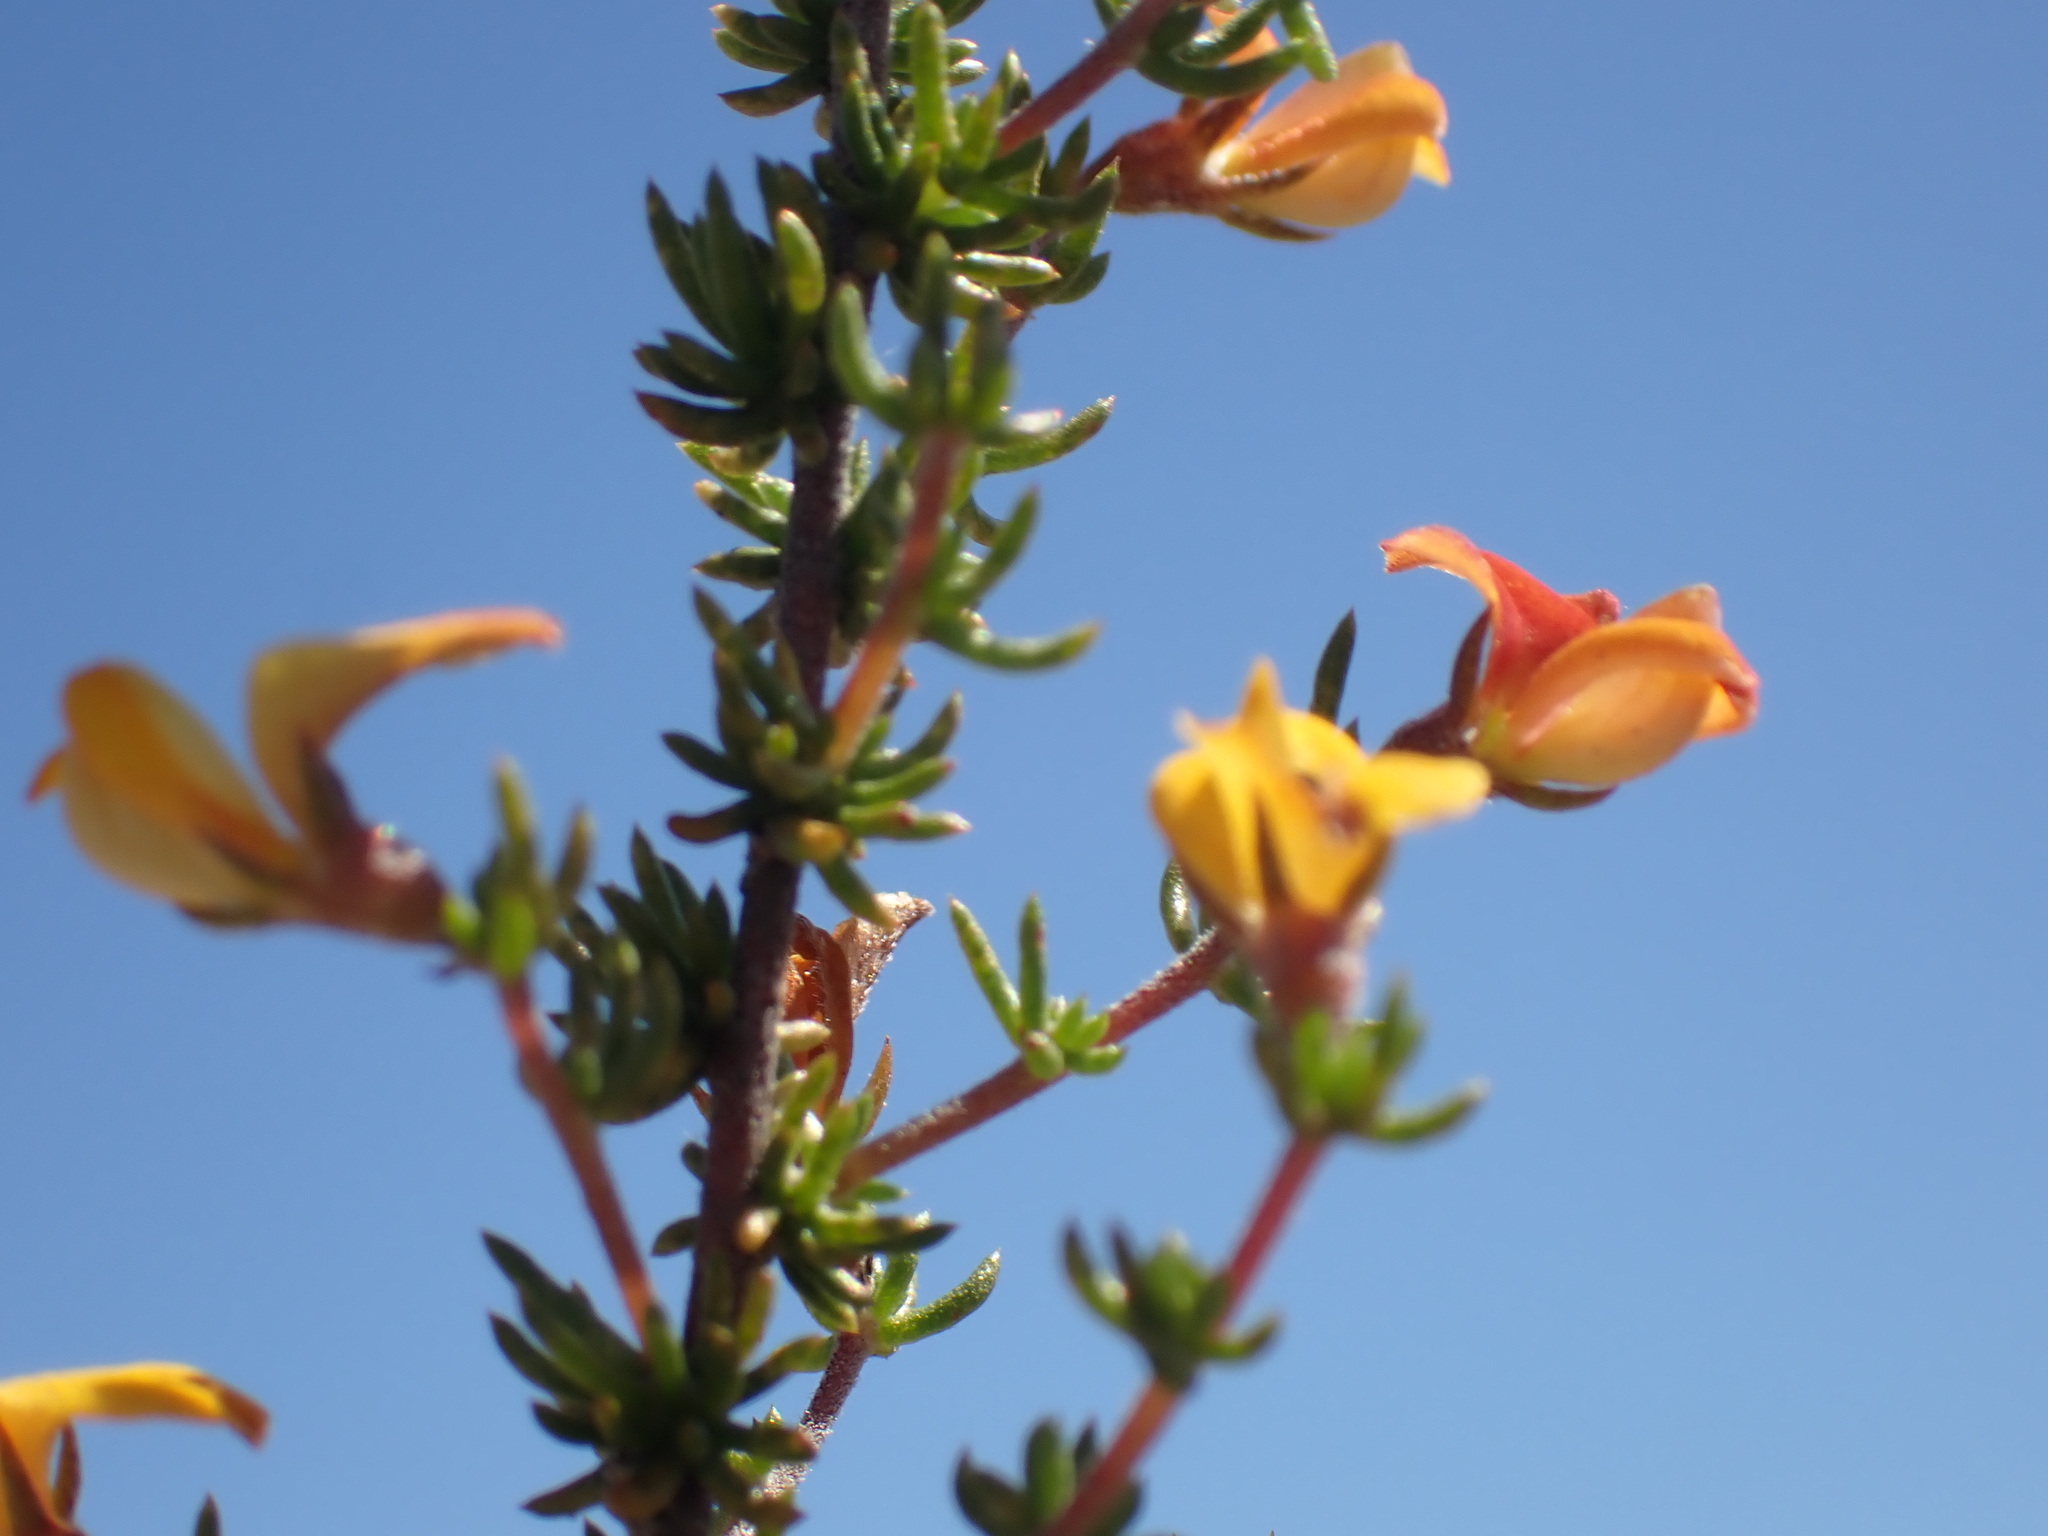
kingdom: Plantae
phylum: Tracheophyta
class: Magnoliopsida
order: Fabales
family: Fabaceae
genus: Aspalathus
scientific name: Aspalathus rubens
